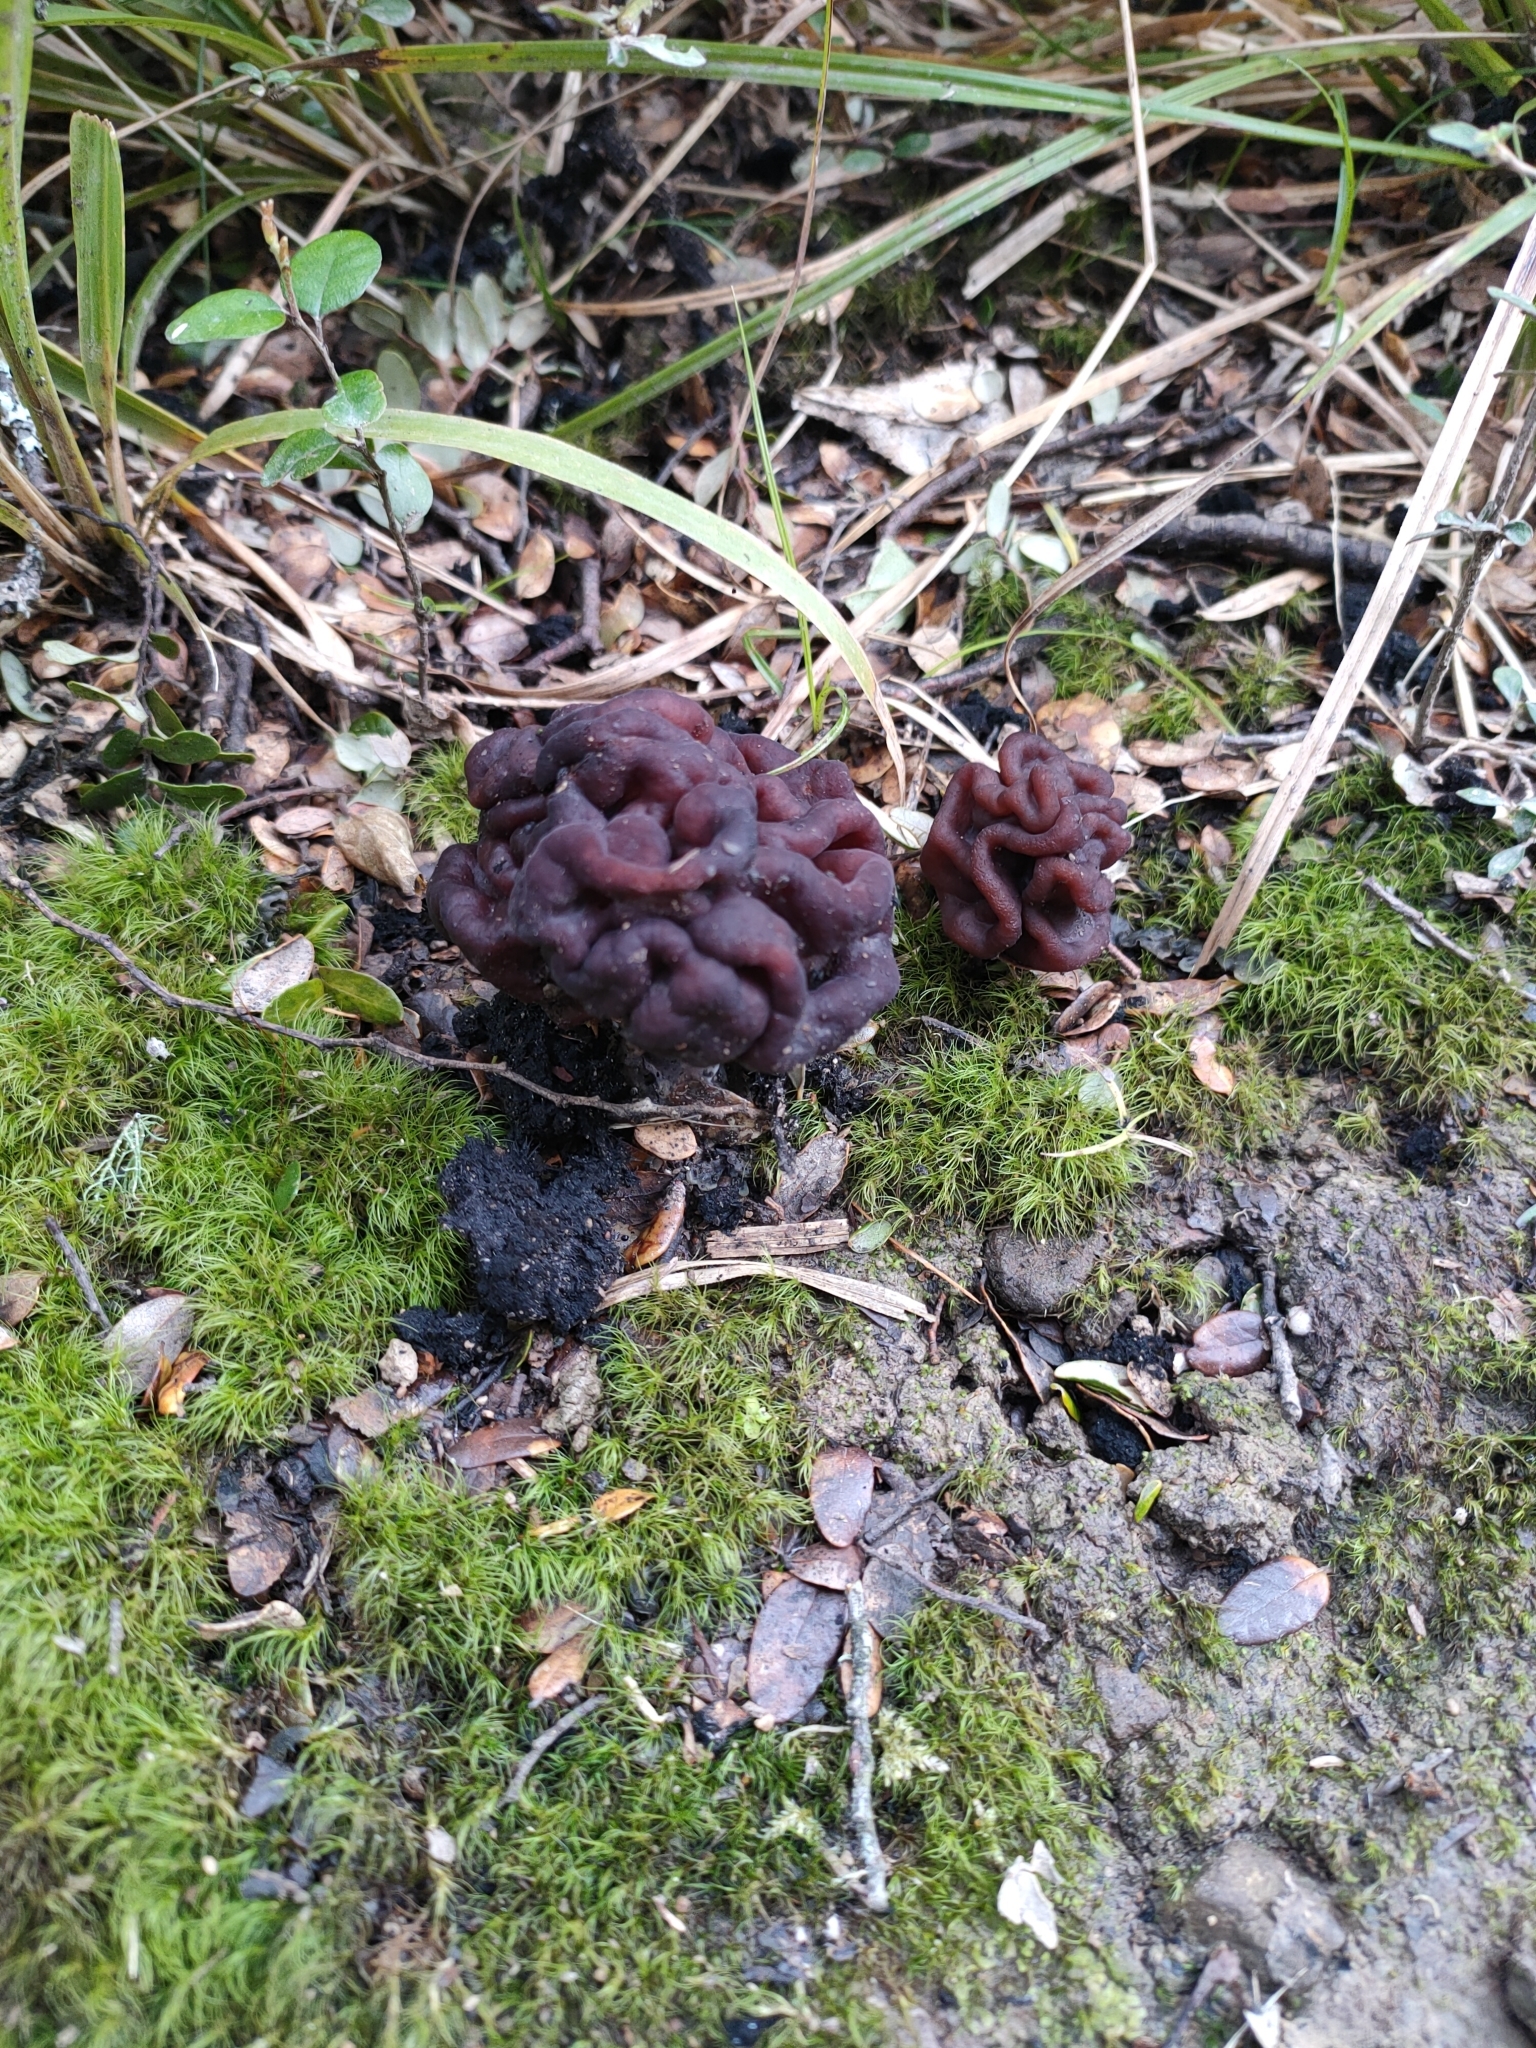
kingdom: Fungi
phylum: Ascomycota
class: Pezizomycetes
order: Pezizales
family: Discinaceae
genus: Gyromitra
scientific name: Gyromitra tasmanica
